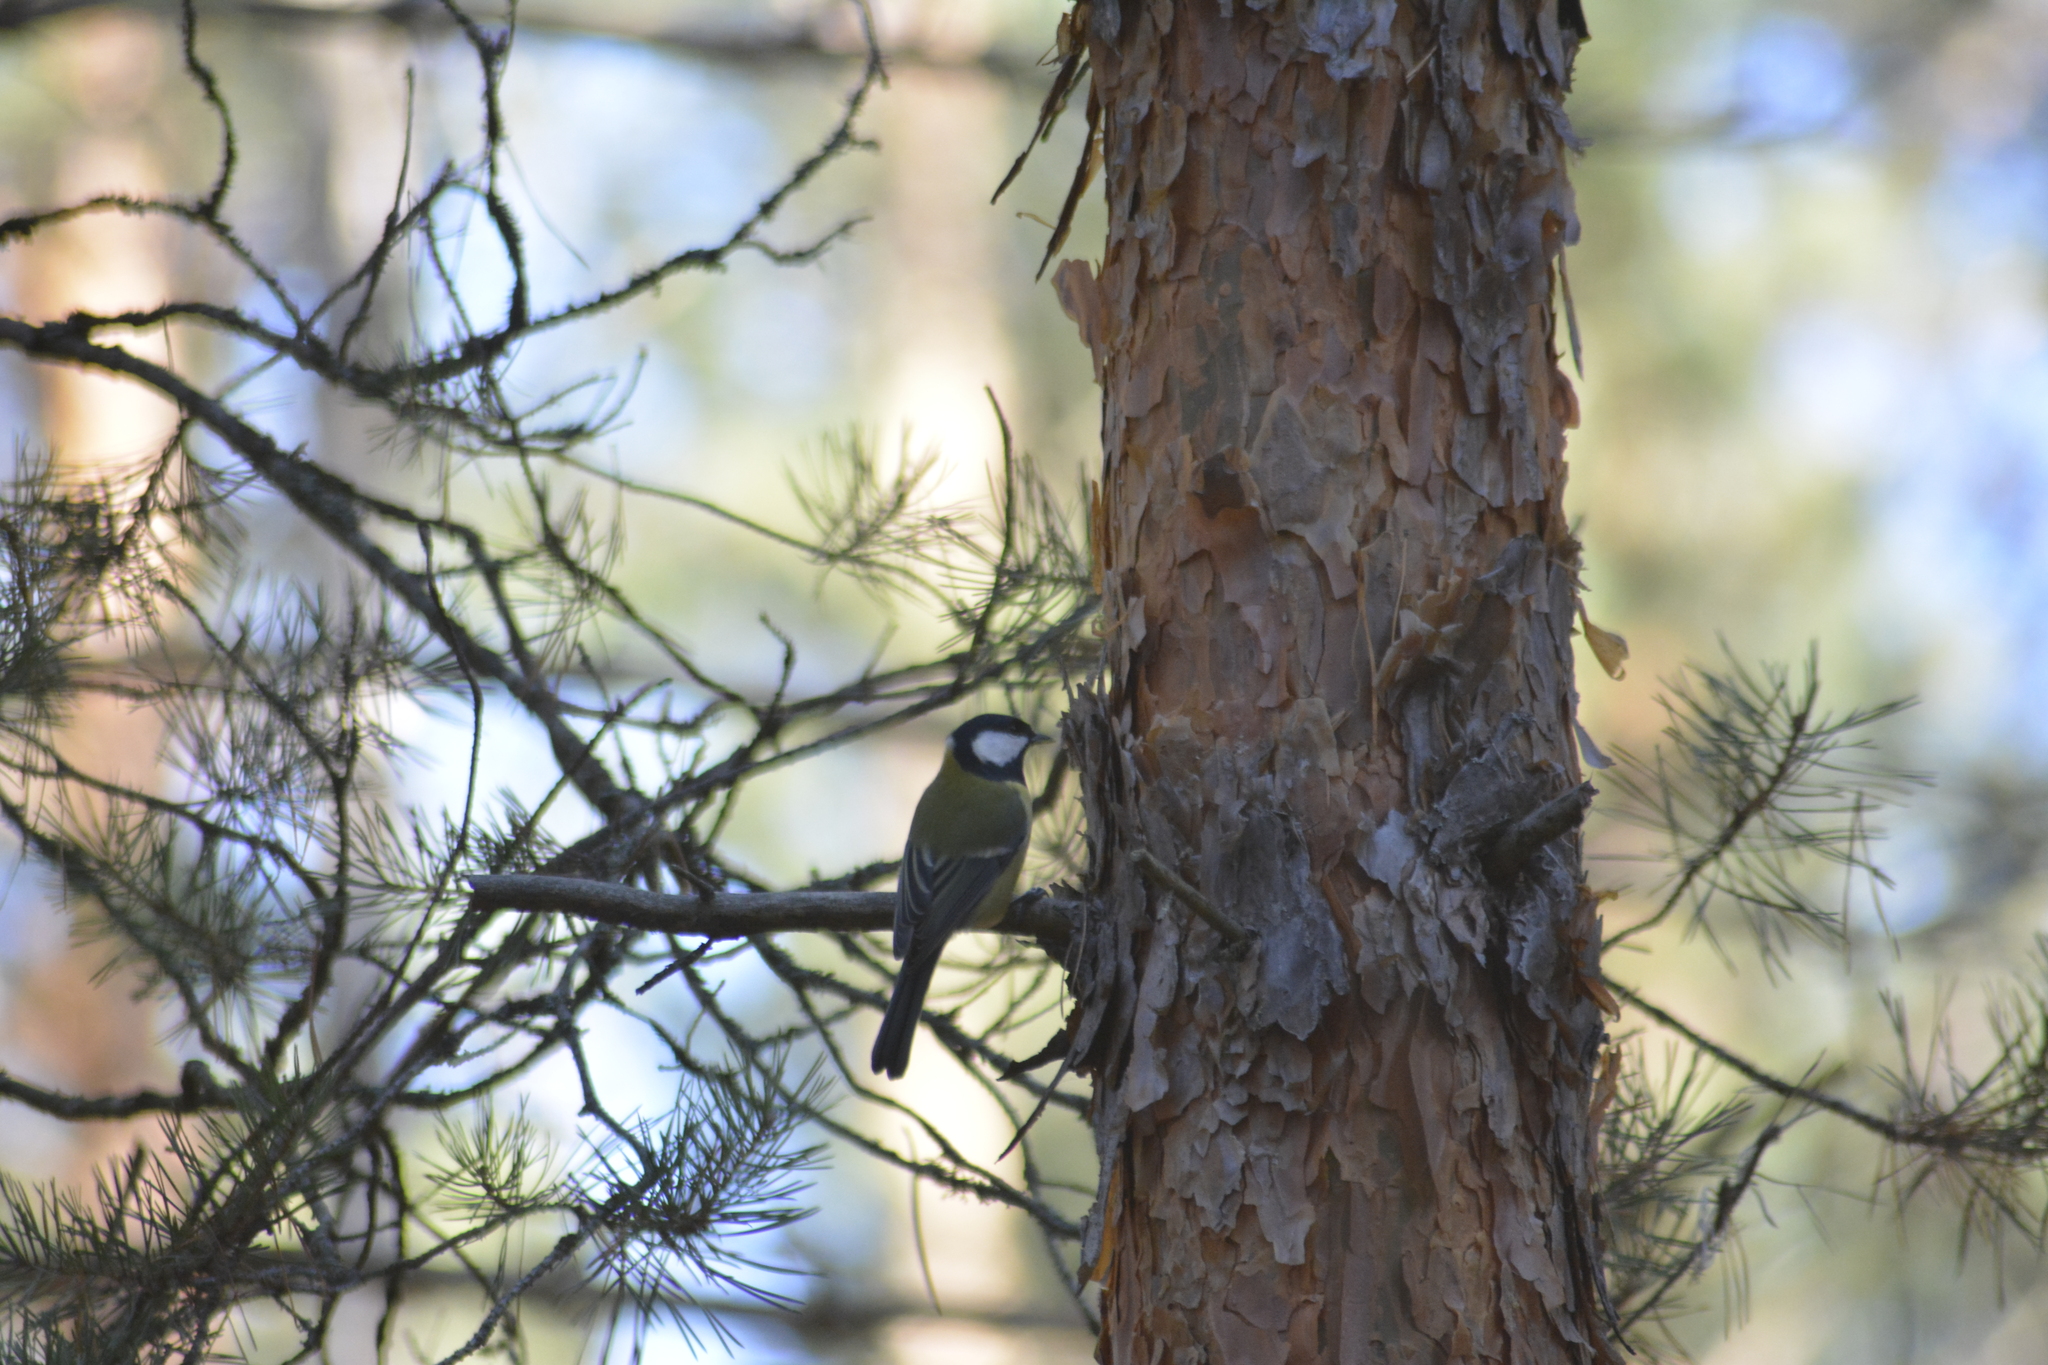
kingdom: Animalia
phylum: Chordata
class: Aves
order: Passeriformes
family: Paridae
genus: Parus
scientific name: Parus major
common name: Great tit
